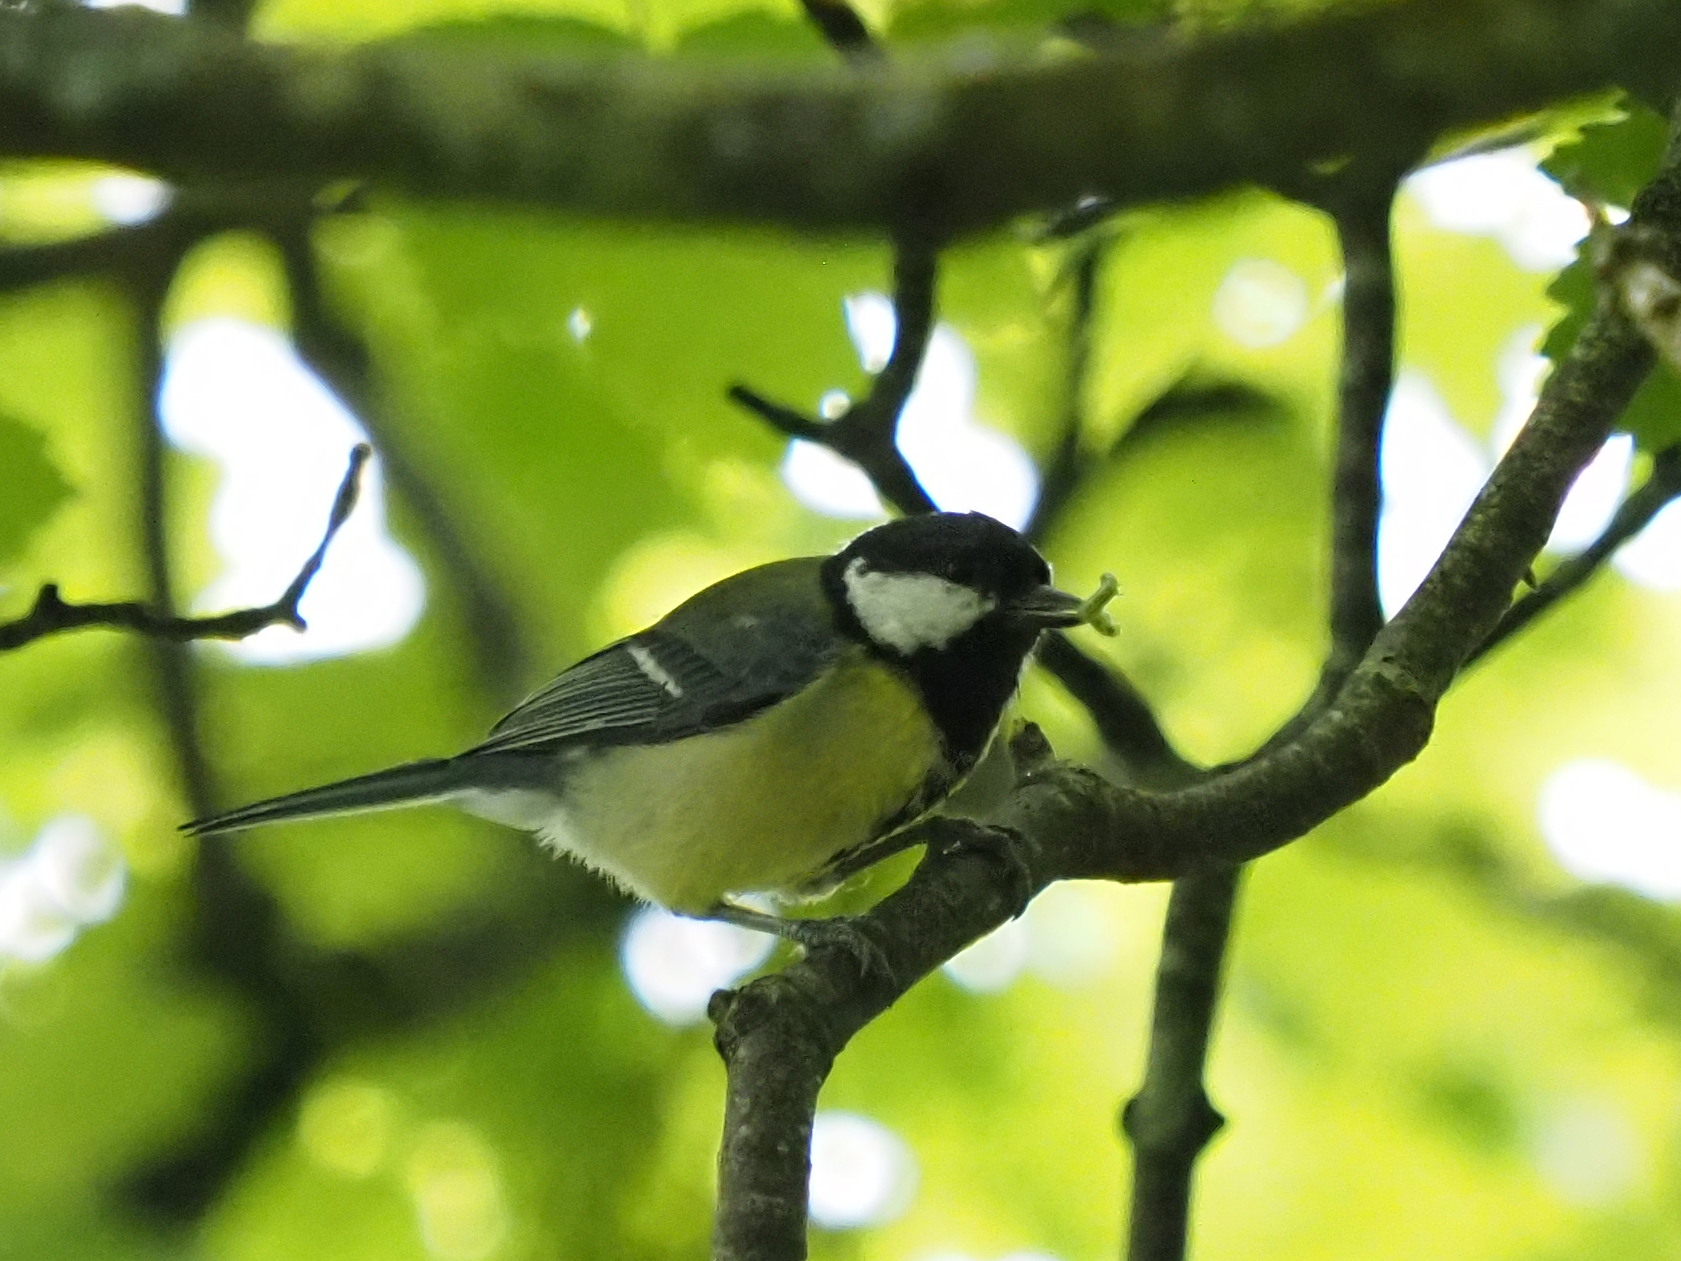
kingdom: Animalia
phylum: Chordata
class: Aves
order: Passeriformes
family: Paridae
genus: Parus
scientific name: Parus major
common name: Great tit
